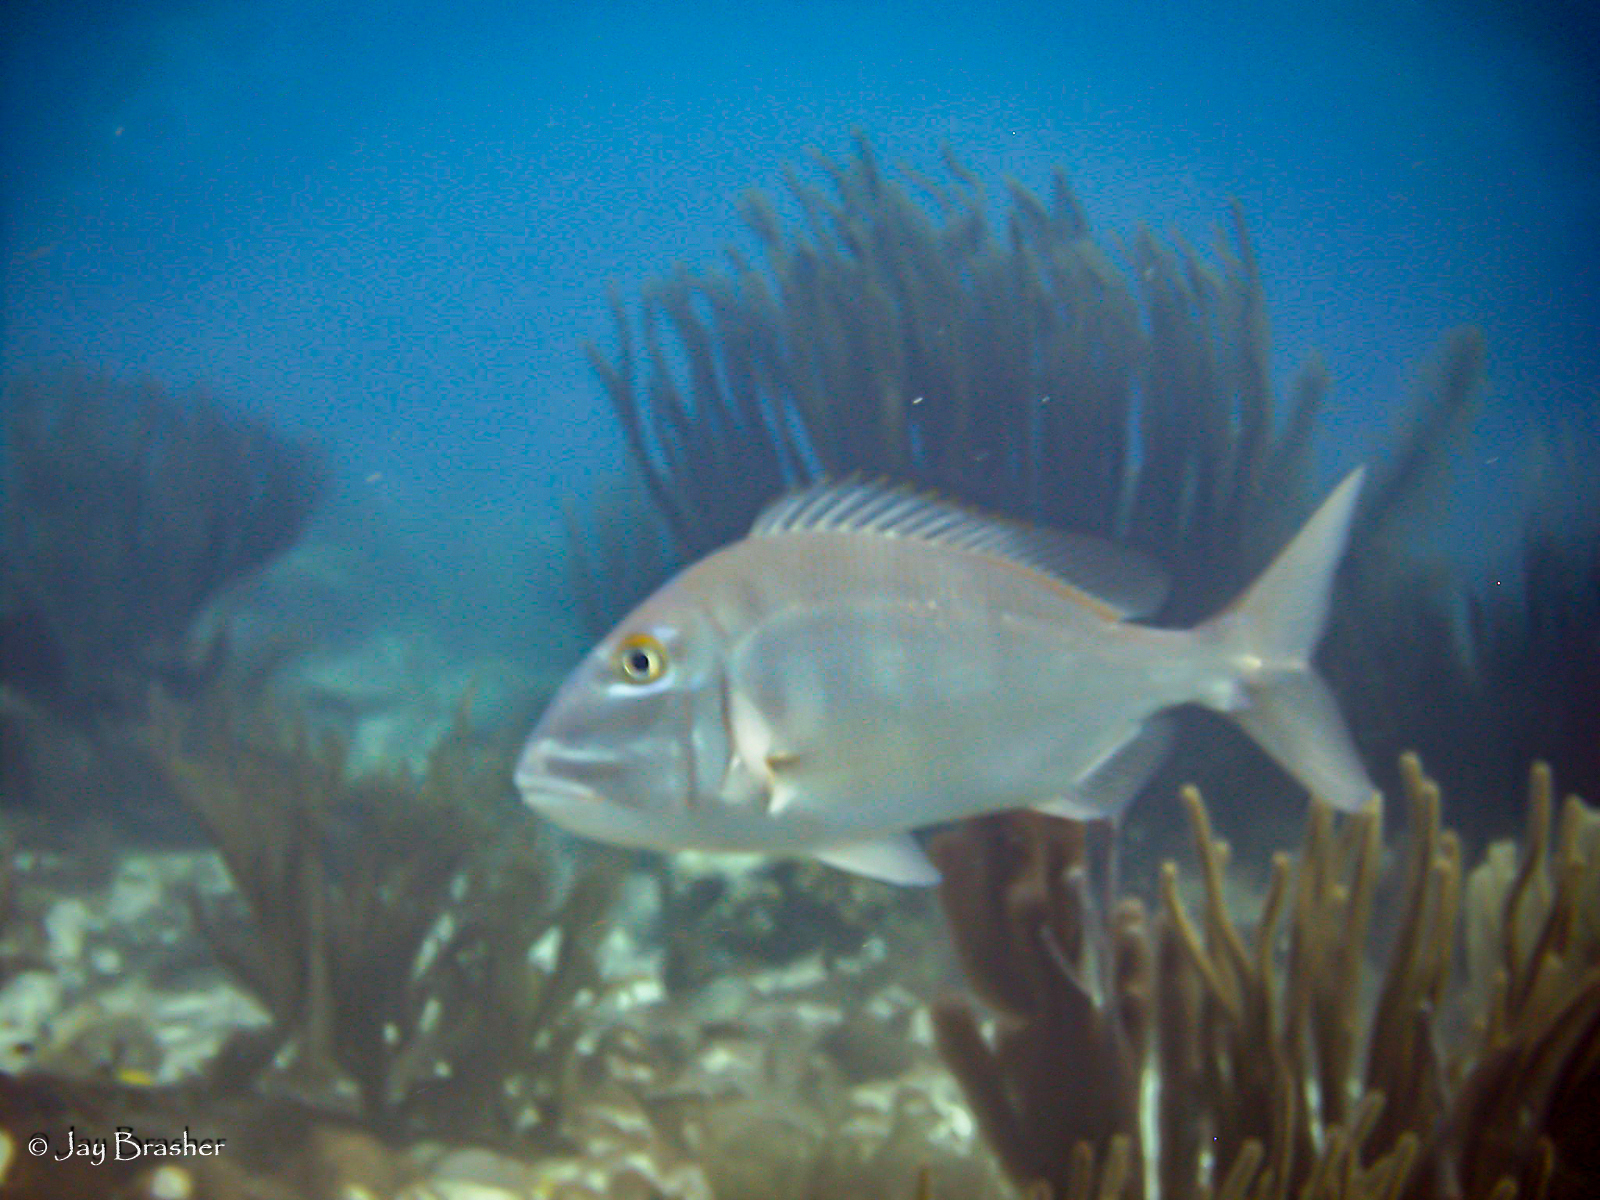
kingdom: Animalia
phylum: Chordata
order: Perciformes
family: Sparidae
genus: Calamus
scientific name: Calamus bajonado
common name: Jolthead porgy
